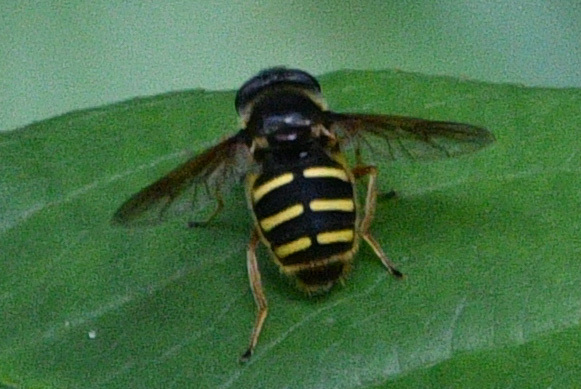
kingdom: Animalia
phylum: Arthropoda
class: Insecta
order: Diptera
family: Syrphidae
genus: Sericomyia
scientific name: Sericomyia chalcopyga
